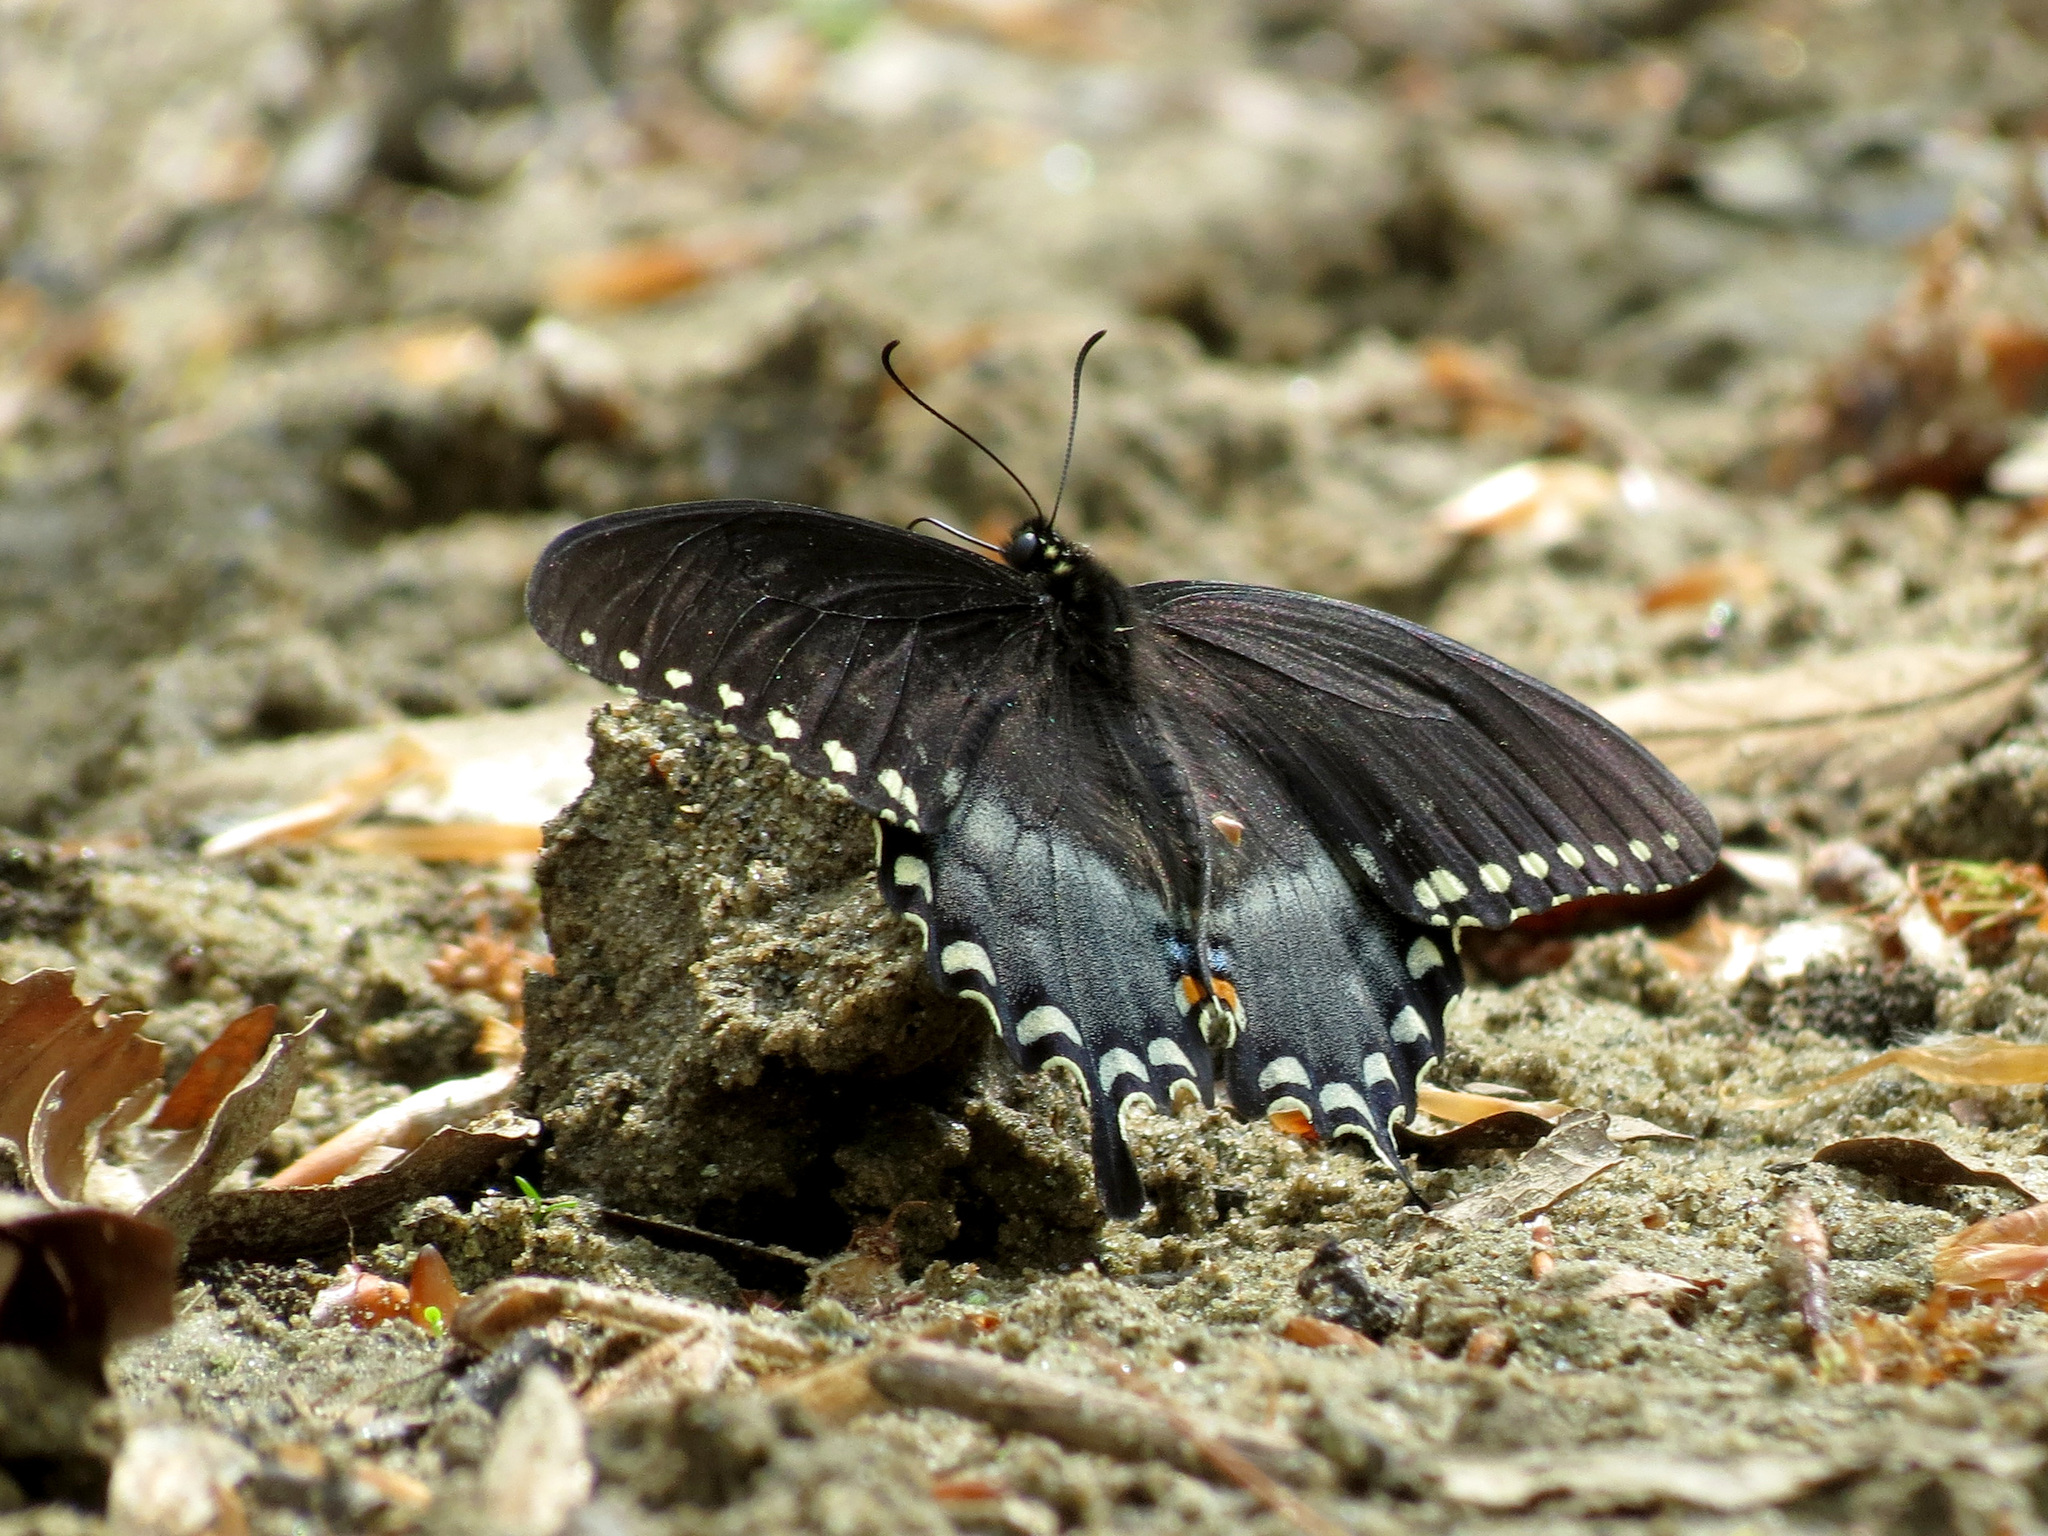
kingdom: Animalia
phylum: Arthropoda
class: Insecta
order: Lepidoptera
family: Papilionidae
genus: Papilio
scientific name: Papilio troilus
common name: Spicebush swallowtail
